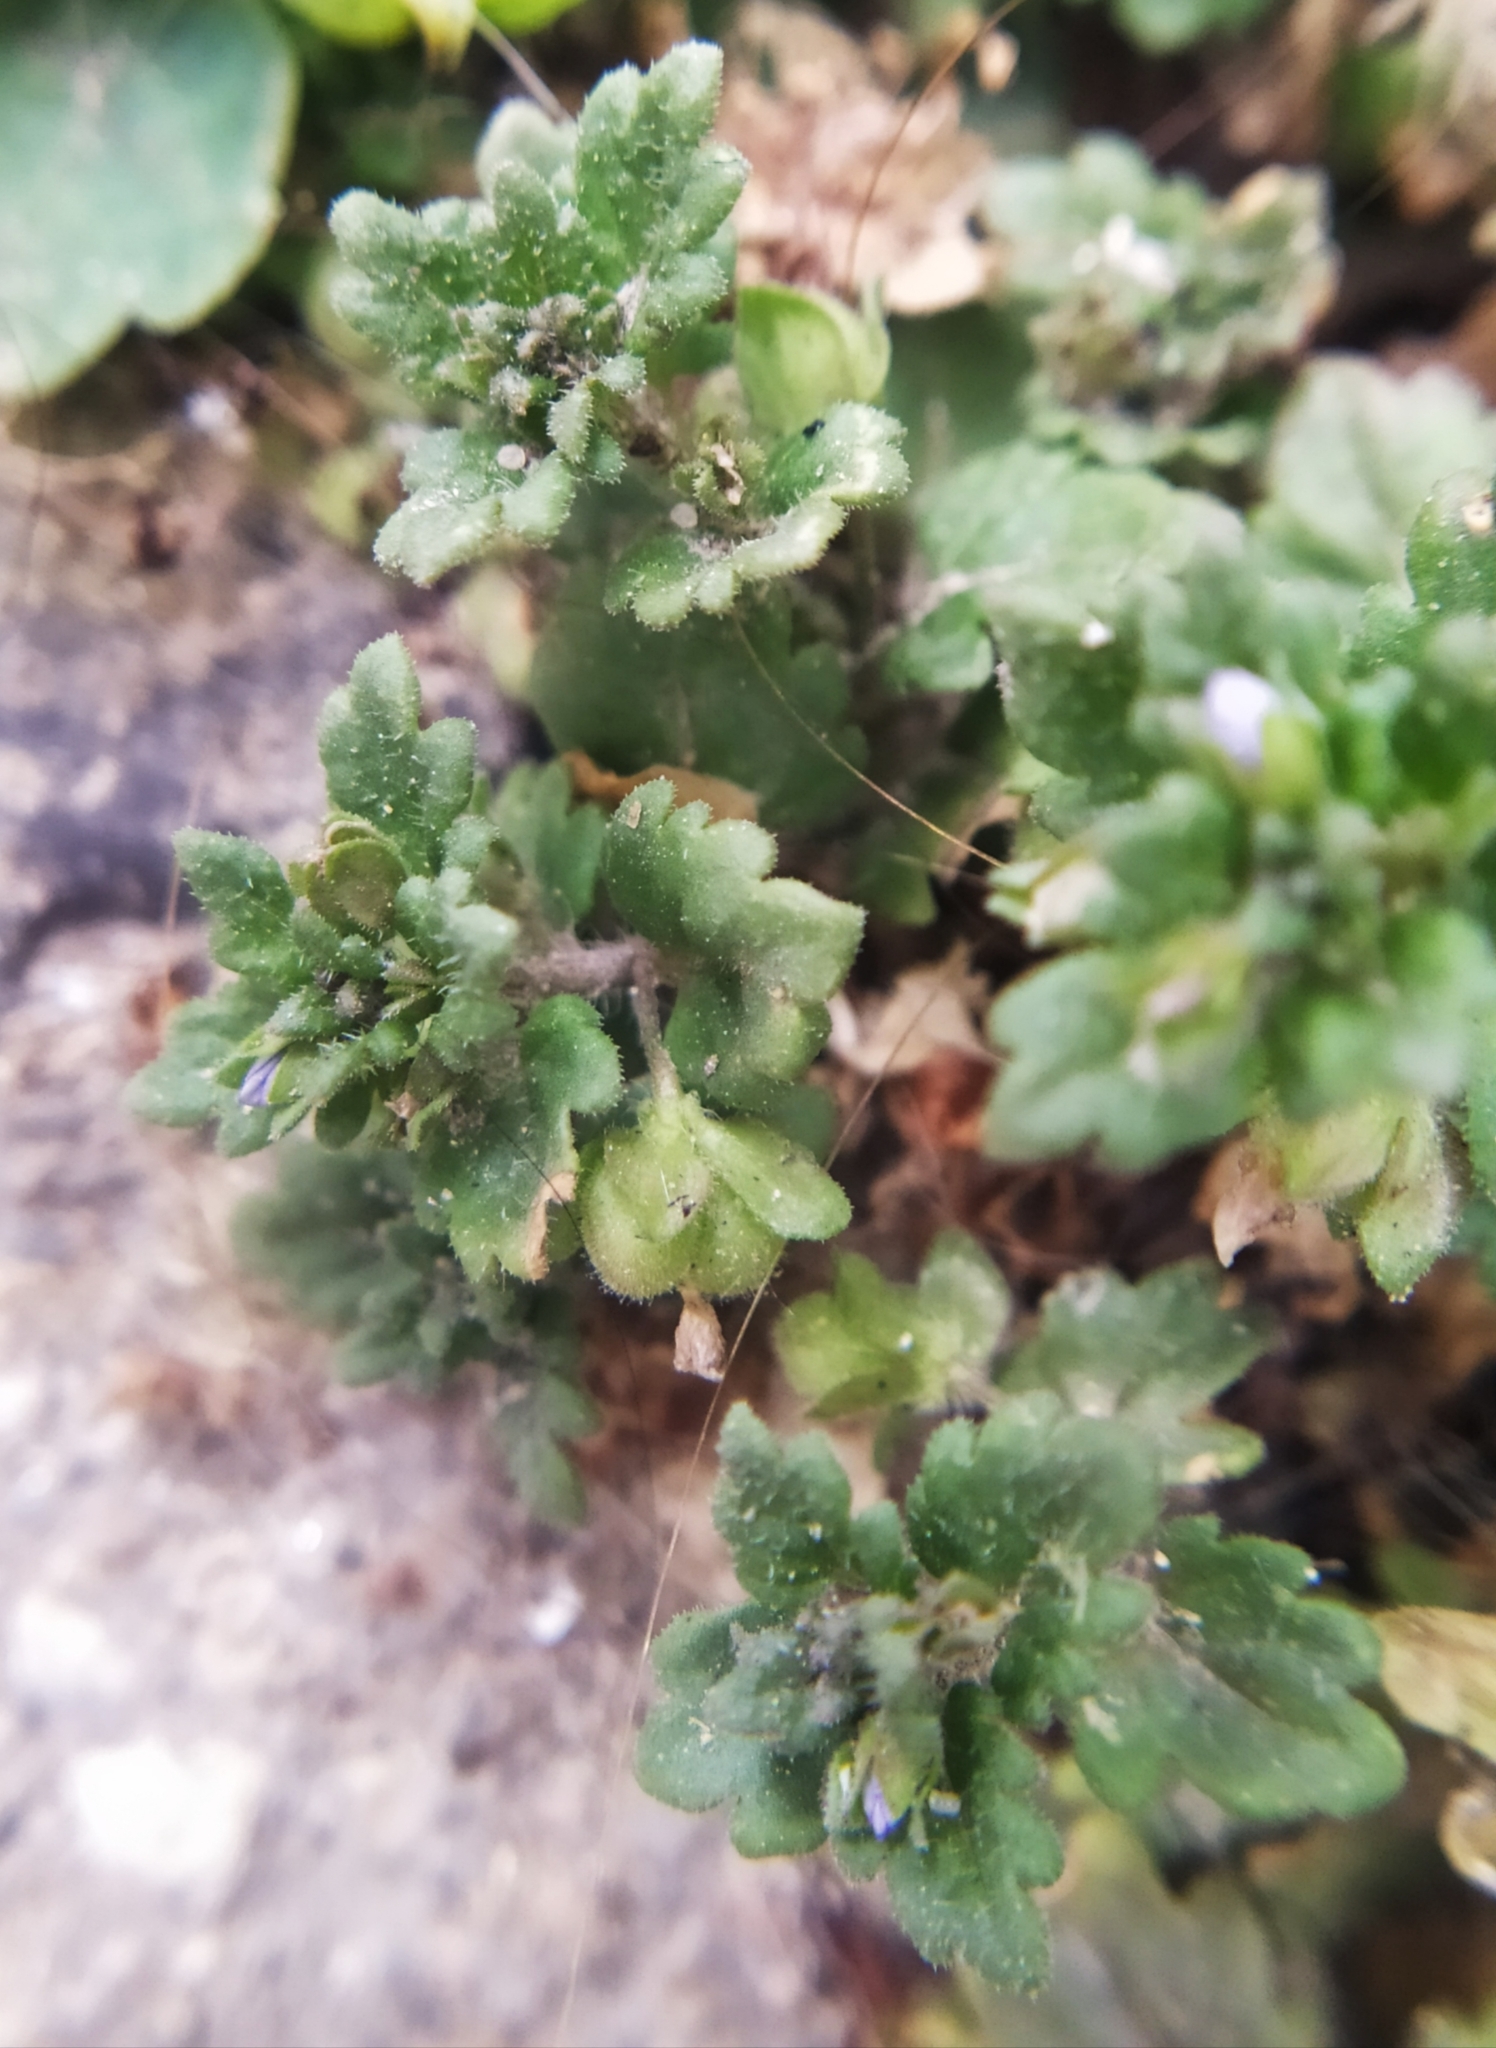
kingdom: Plantae
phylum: Tracheophyta
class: Magnoliopsida
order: Lamiales
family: Plantaginaceae
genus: Veronica
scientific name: Veronica polita
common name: Grey field-speedwell
